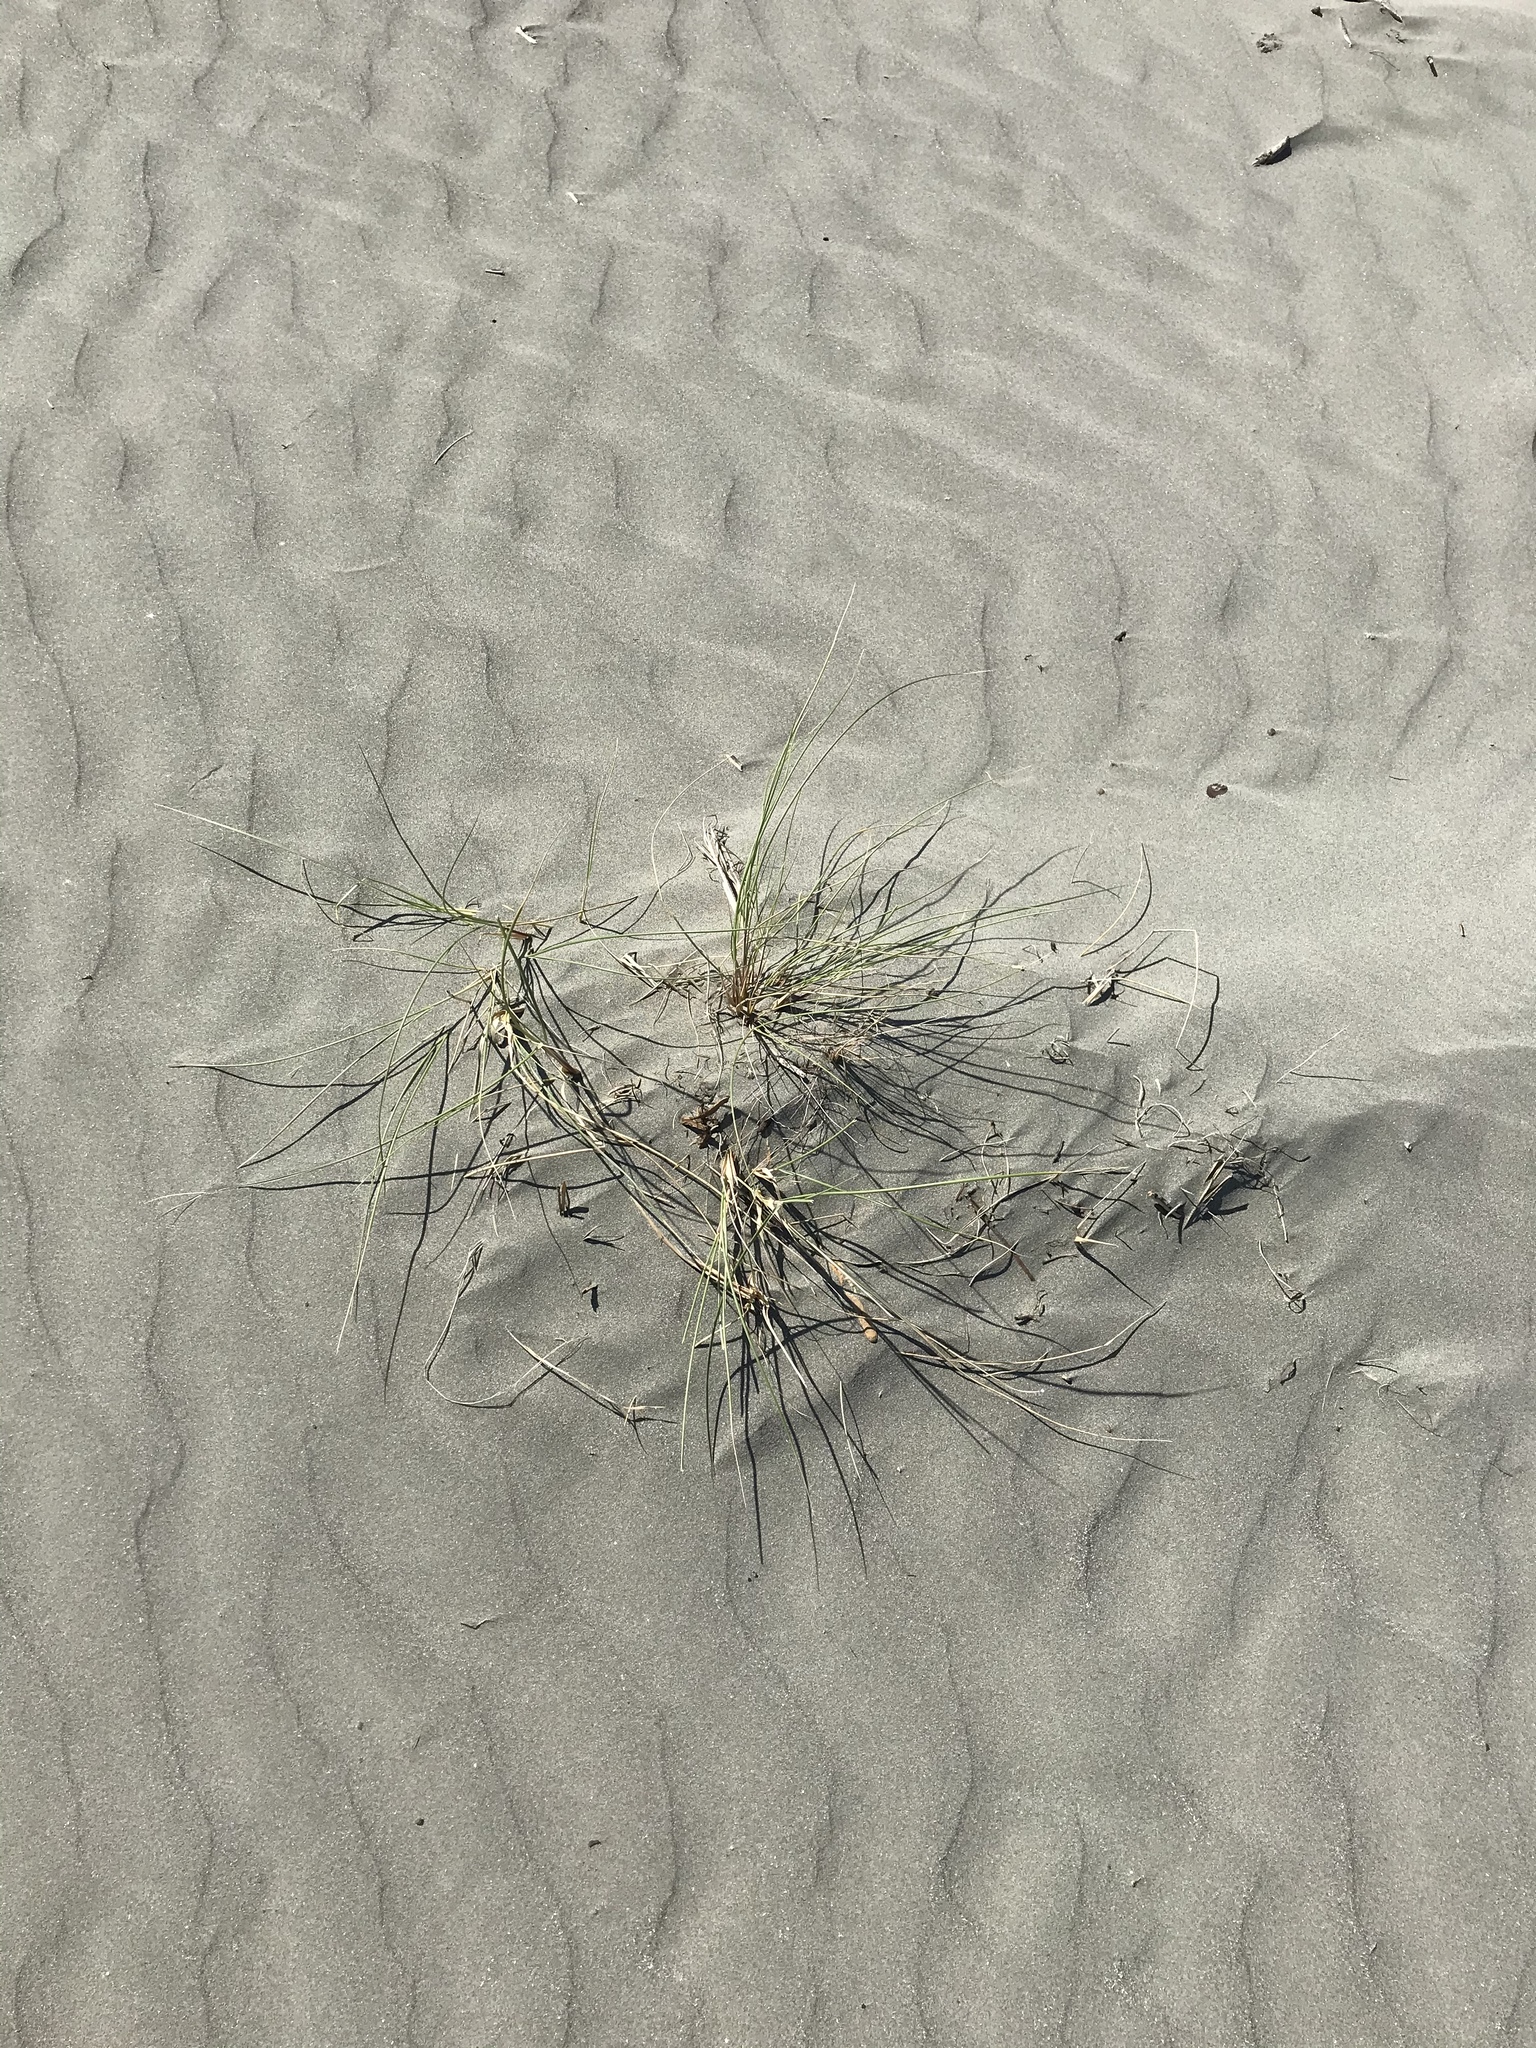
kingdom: Plantae
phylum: Tracheophyta
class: Liliopsida
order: Poales
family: Poaceae
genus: Calamagrostis
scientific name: Calamagrostis arenaria
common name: European beachgrass
